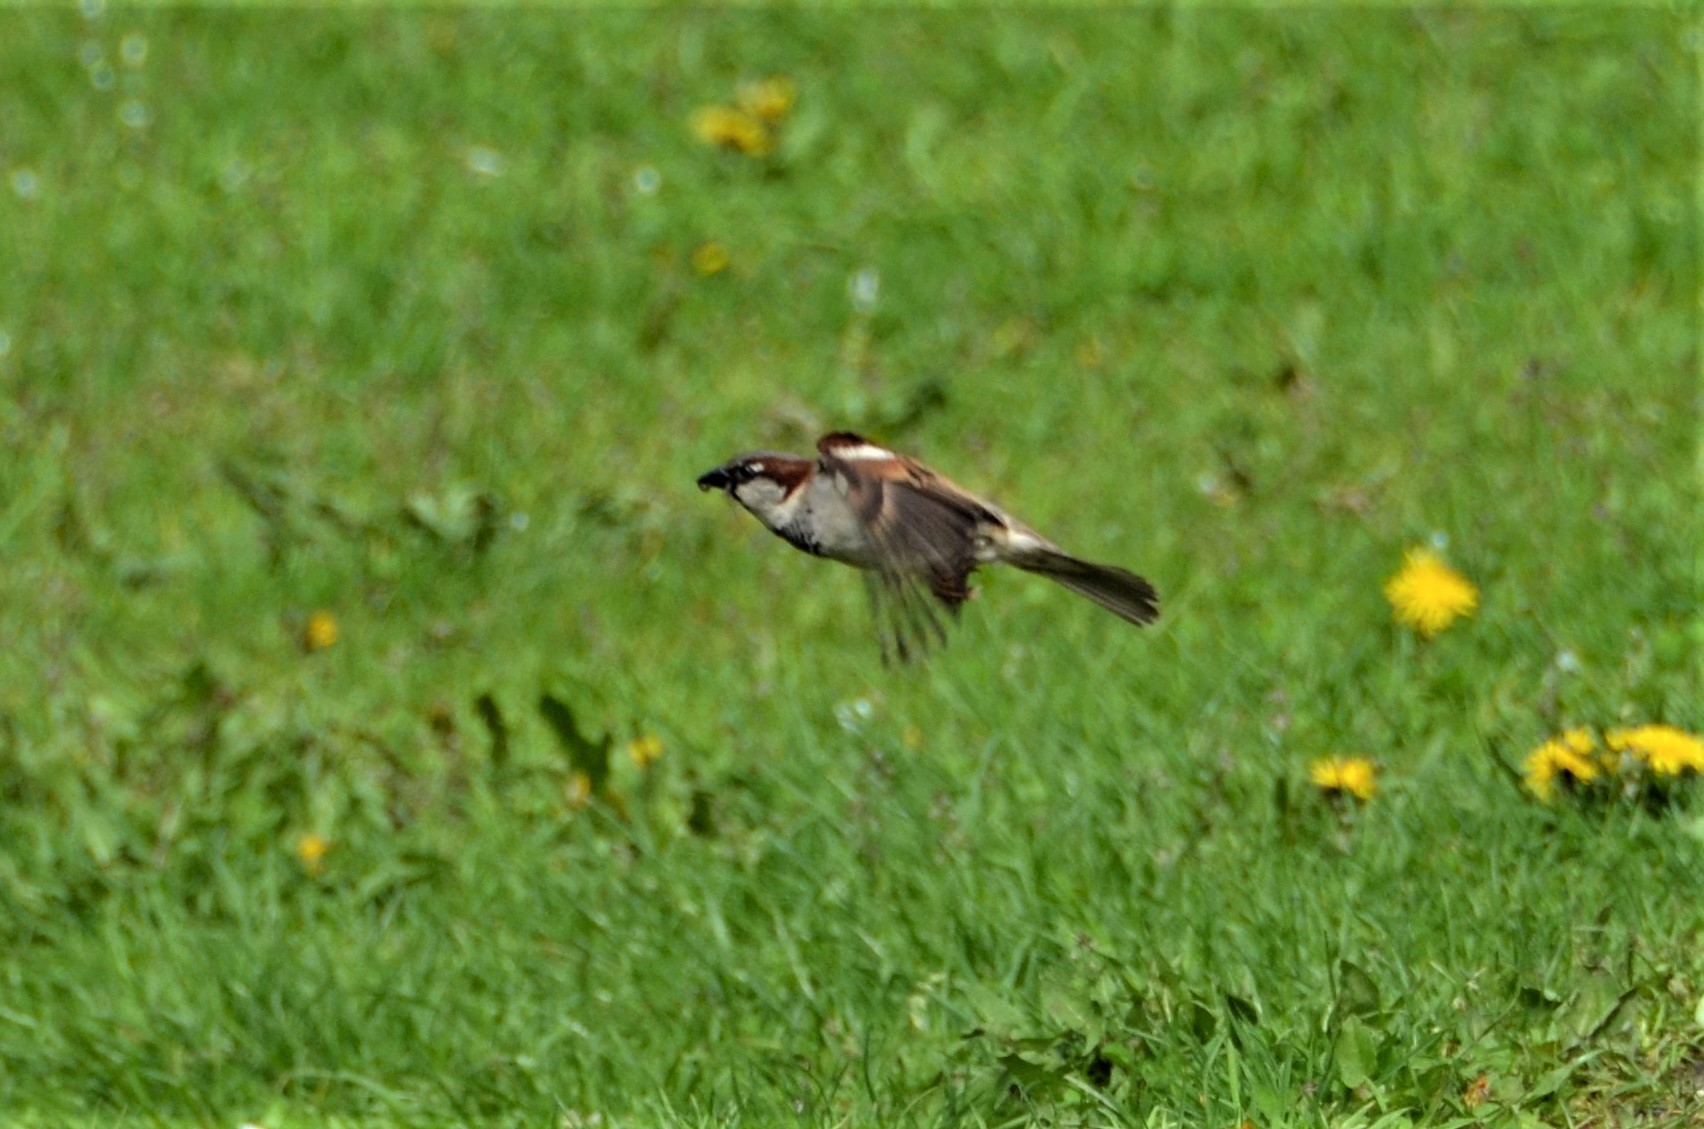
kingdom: Animalia
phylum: Chordata
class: Aves
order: Passeriformes
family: Passeridae
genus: Passer
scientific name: Passer domesticus
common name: House sparrow
